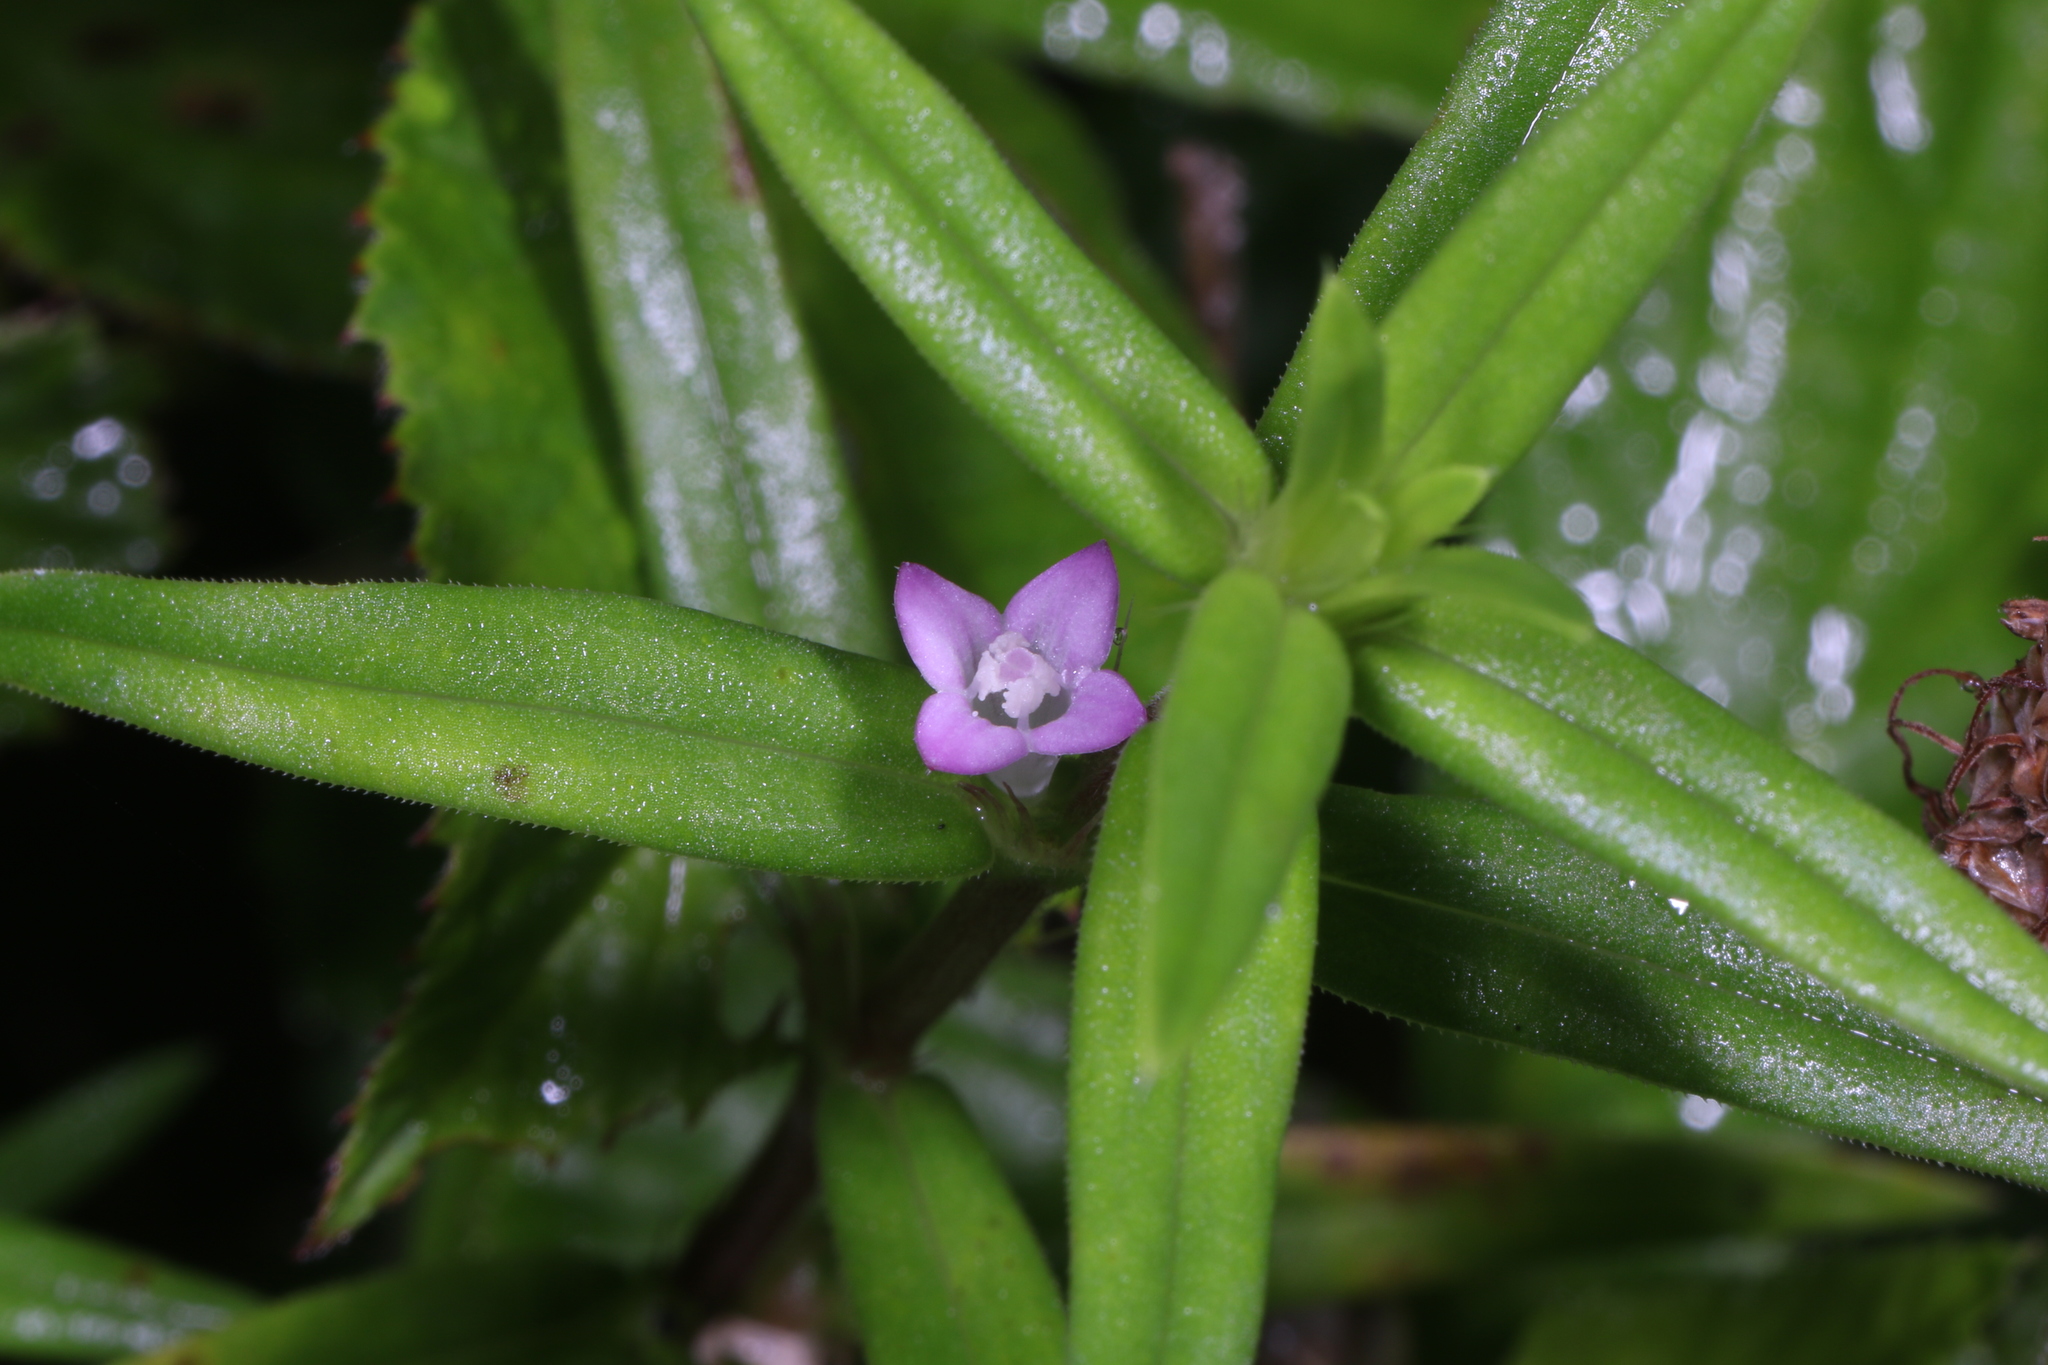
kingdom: Plantae
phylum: Tracheophyta
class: Magnoliopsida
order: Gentianales
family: Rubiaceae
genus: Hexasepalum
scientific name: Hexasepalum teres
